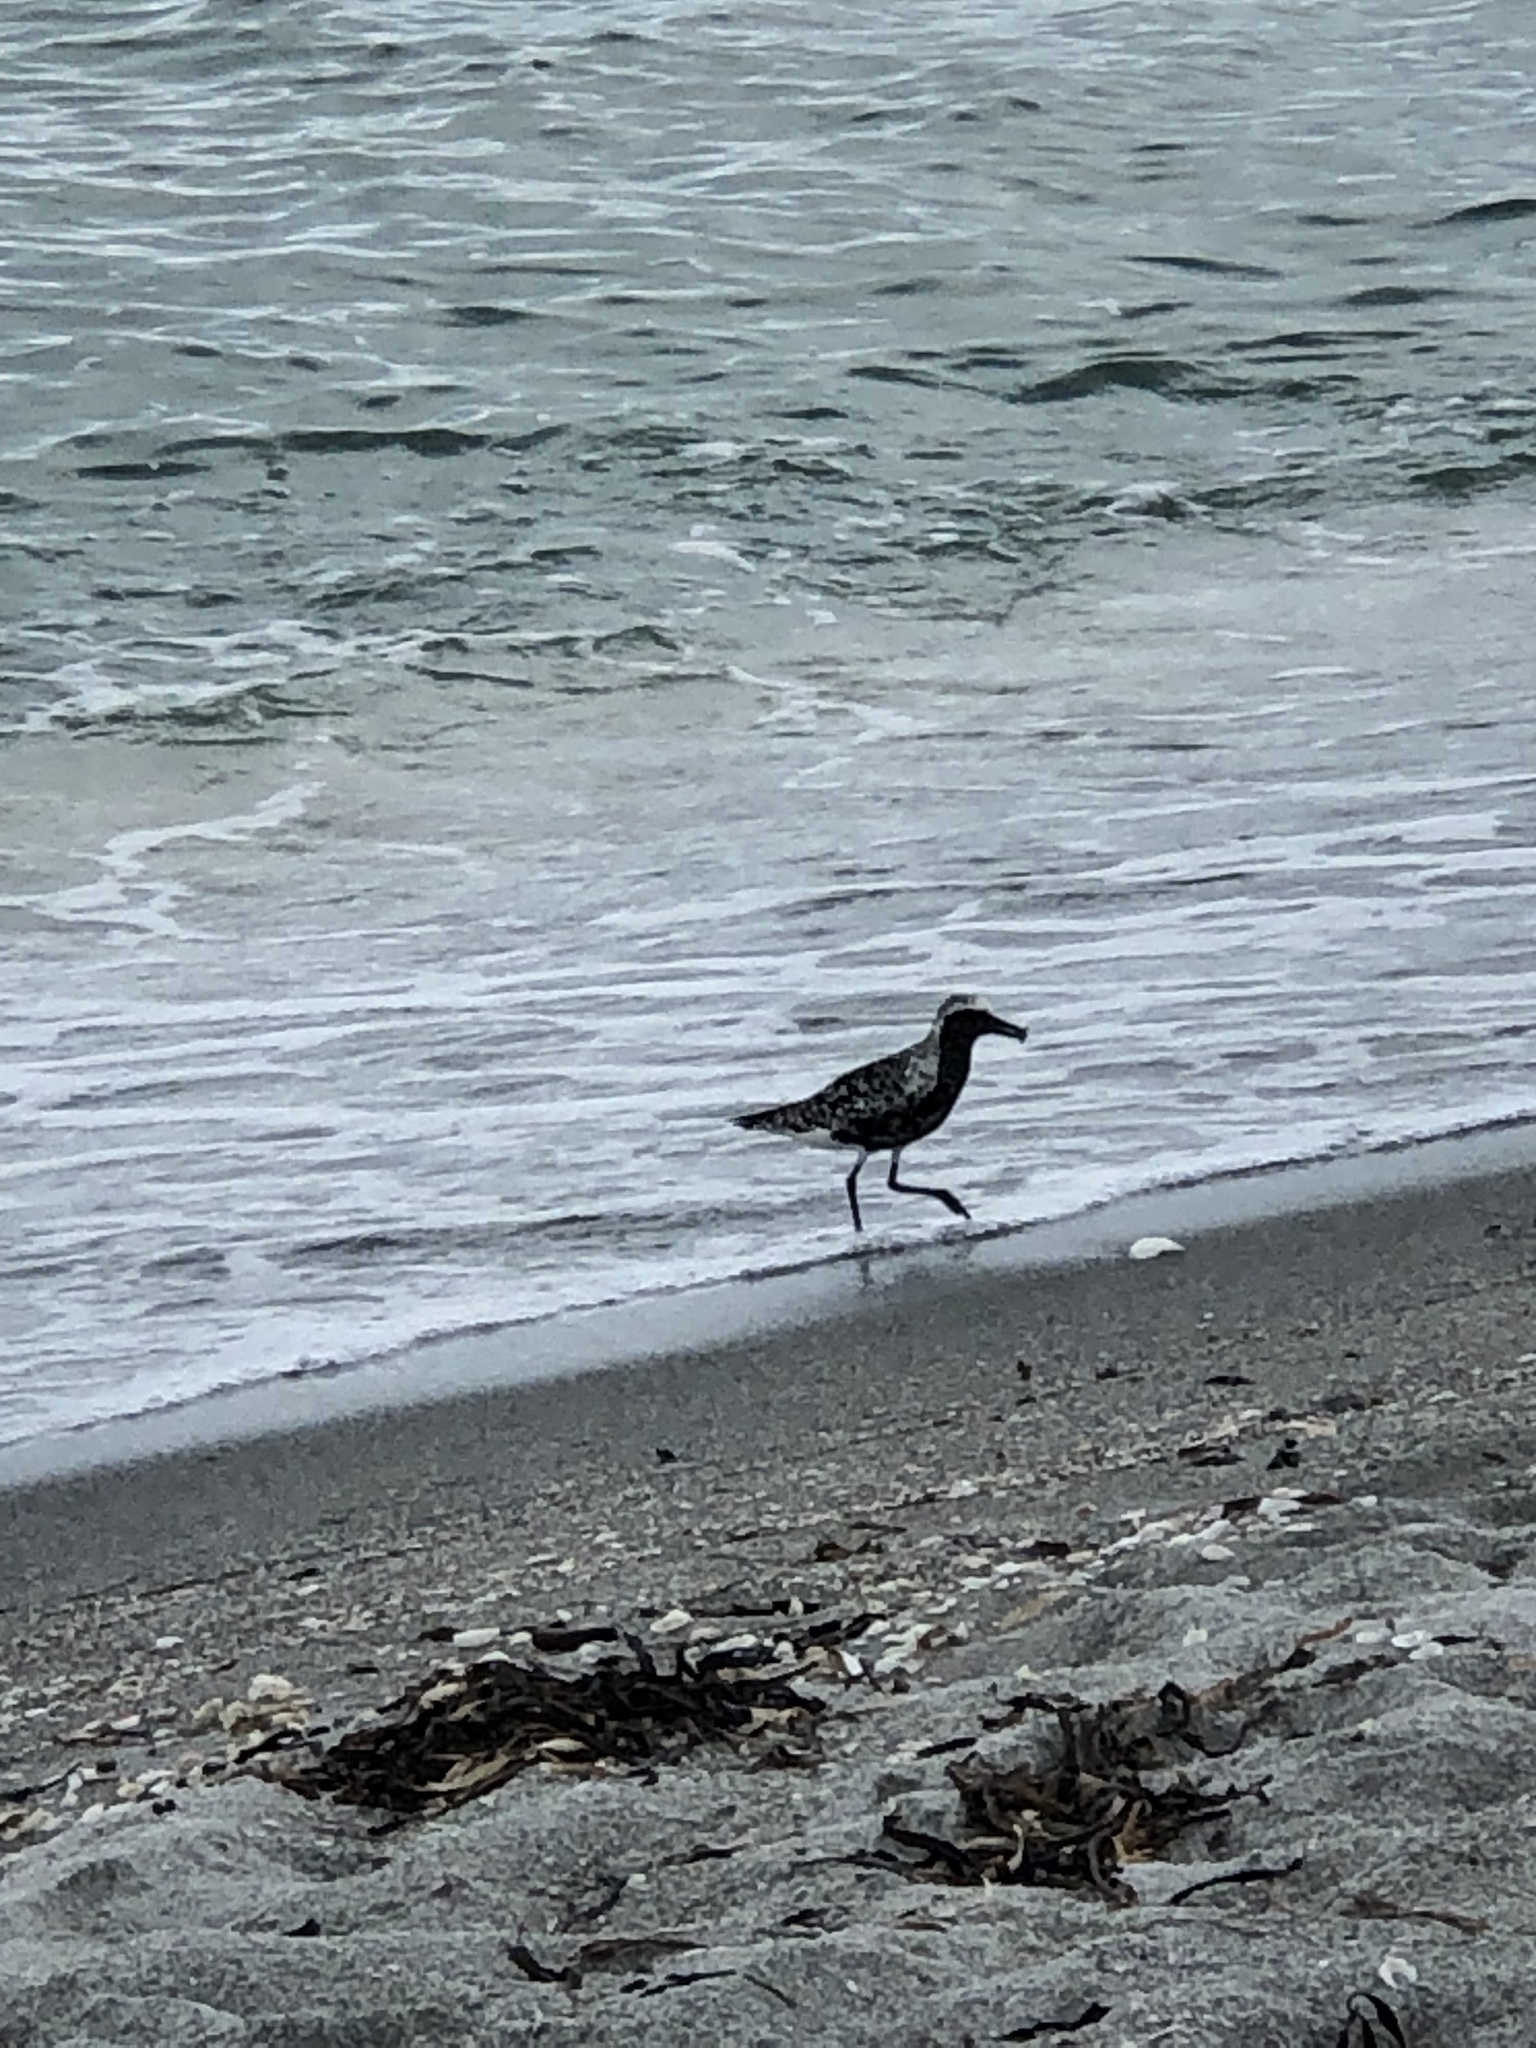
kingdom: Animalia
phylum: Chordata
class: Aves
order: Charadriiformes
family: Charadriidae
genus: Pluvialis
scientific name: Pluvialis squatarola
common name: Grey plover
